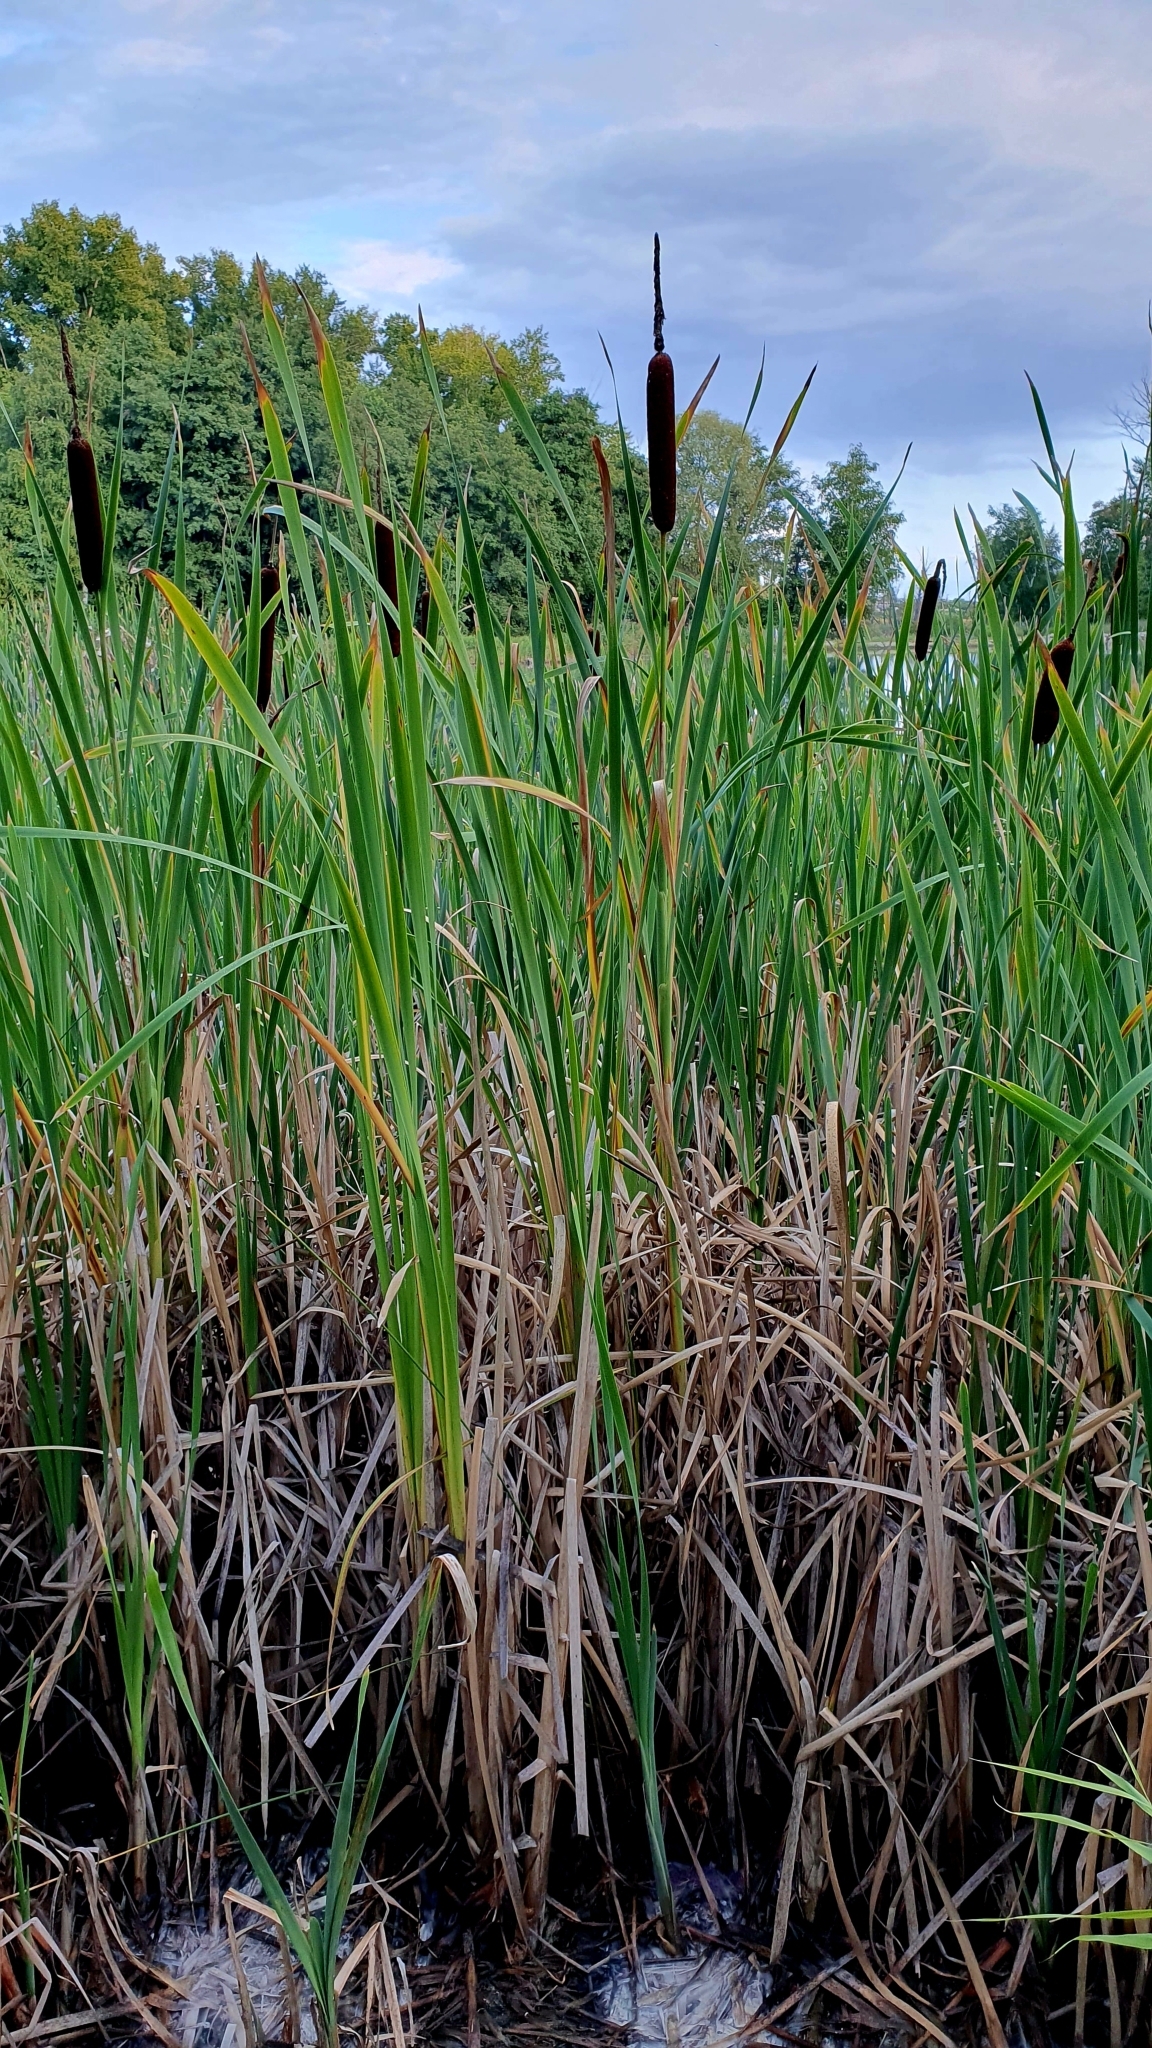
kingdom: Plantae
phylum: Tracheophyta
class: Liliopsida
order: Poales
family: Typhaceae
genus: Typha
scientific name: Typha latifolia
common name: Broadleaf cattail
